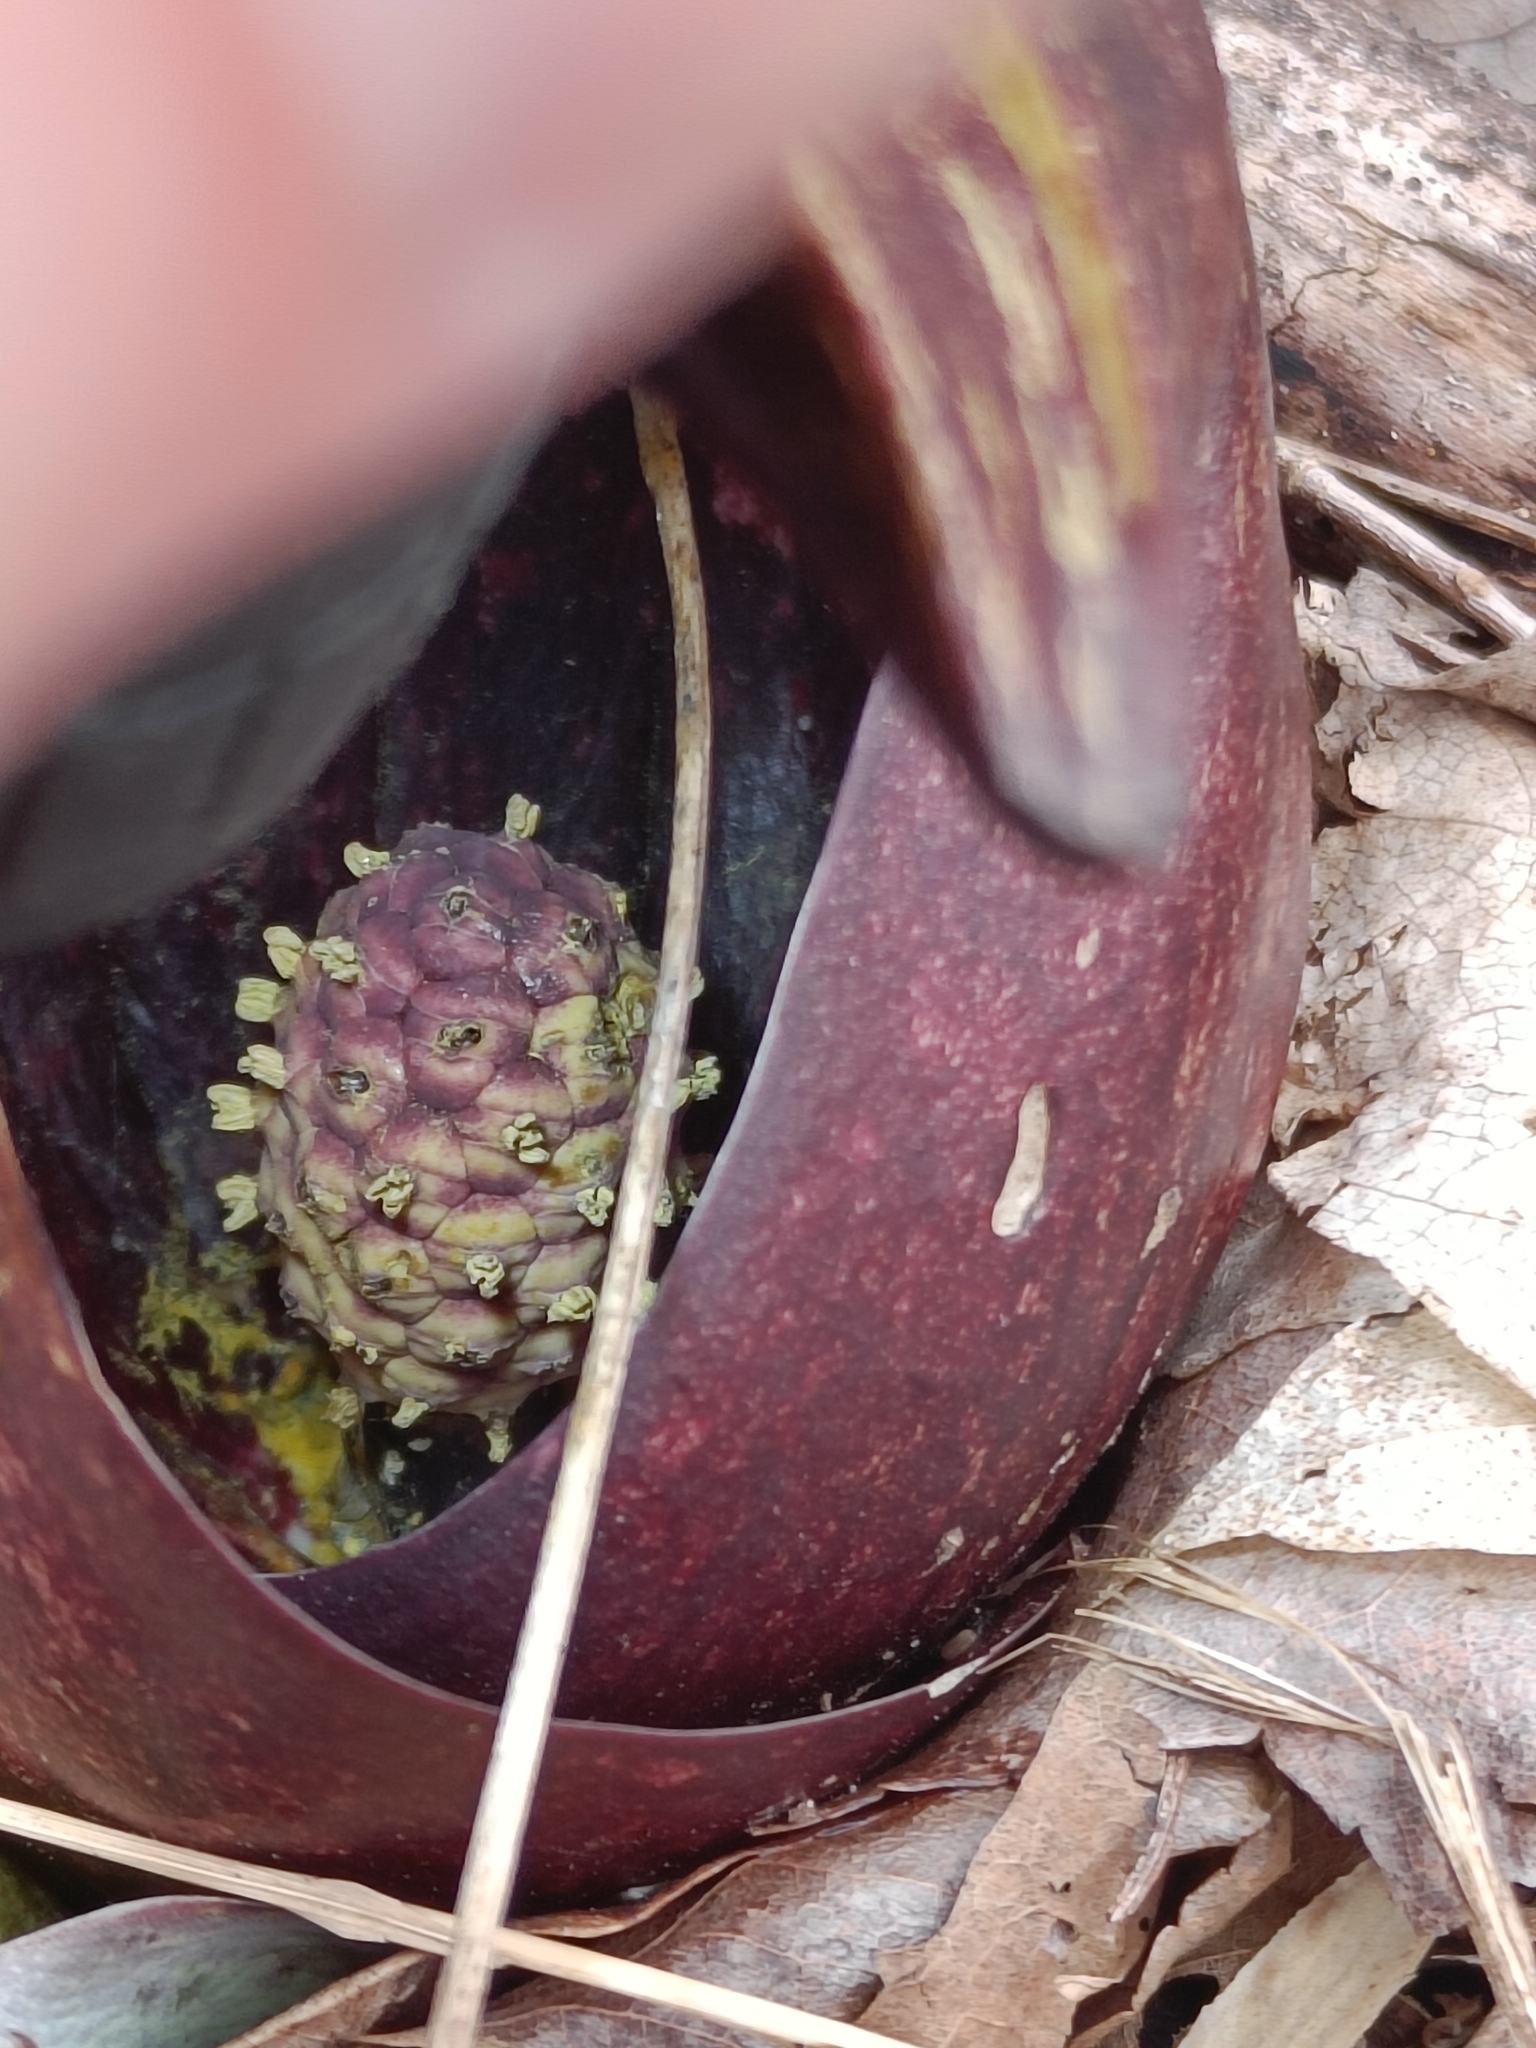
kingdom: Plantae
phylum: Tracheophyta
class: Liliopsida
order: Alismatales
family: Araceae
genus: Symplocarpus
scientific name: Symplocarpus foetidus
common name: Eastern skunk cabbage
